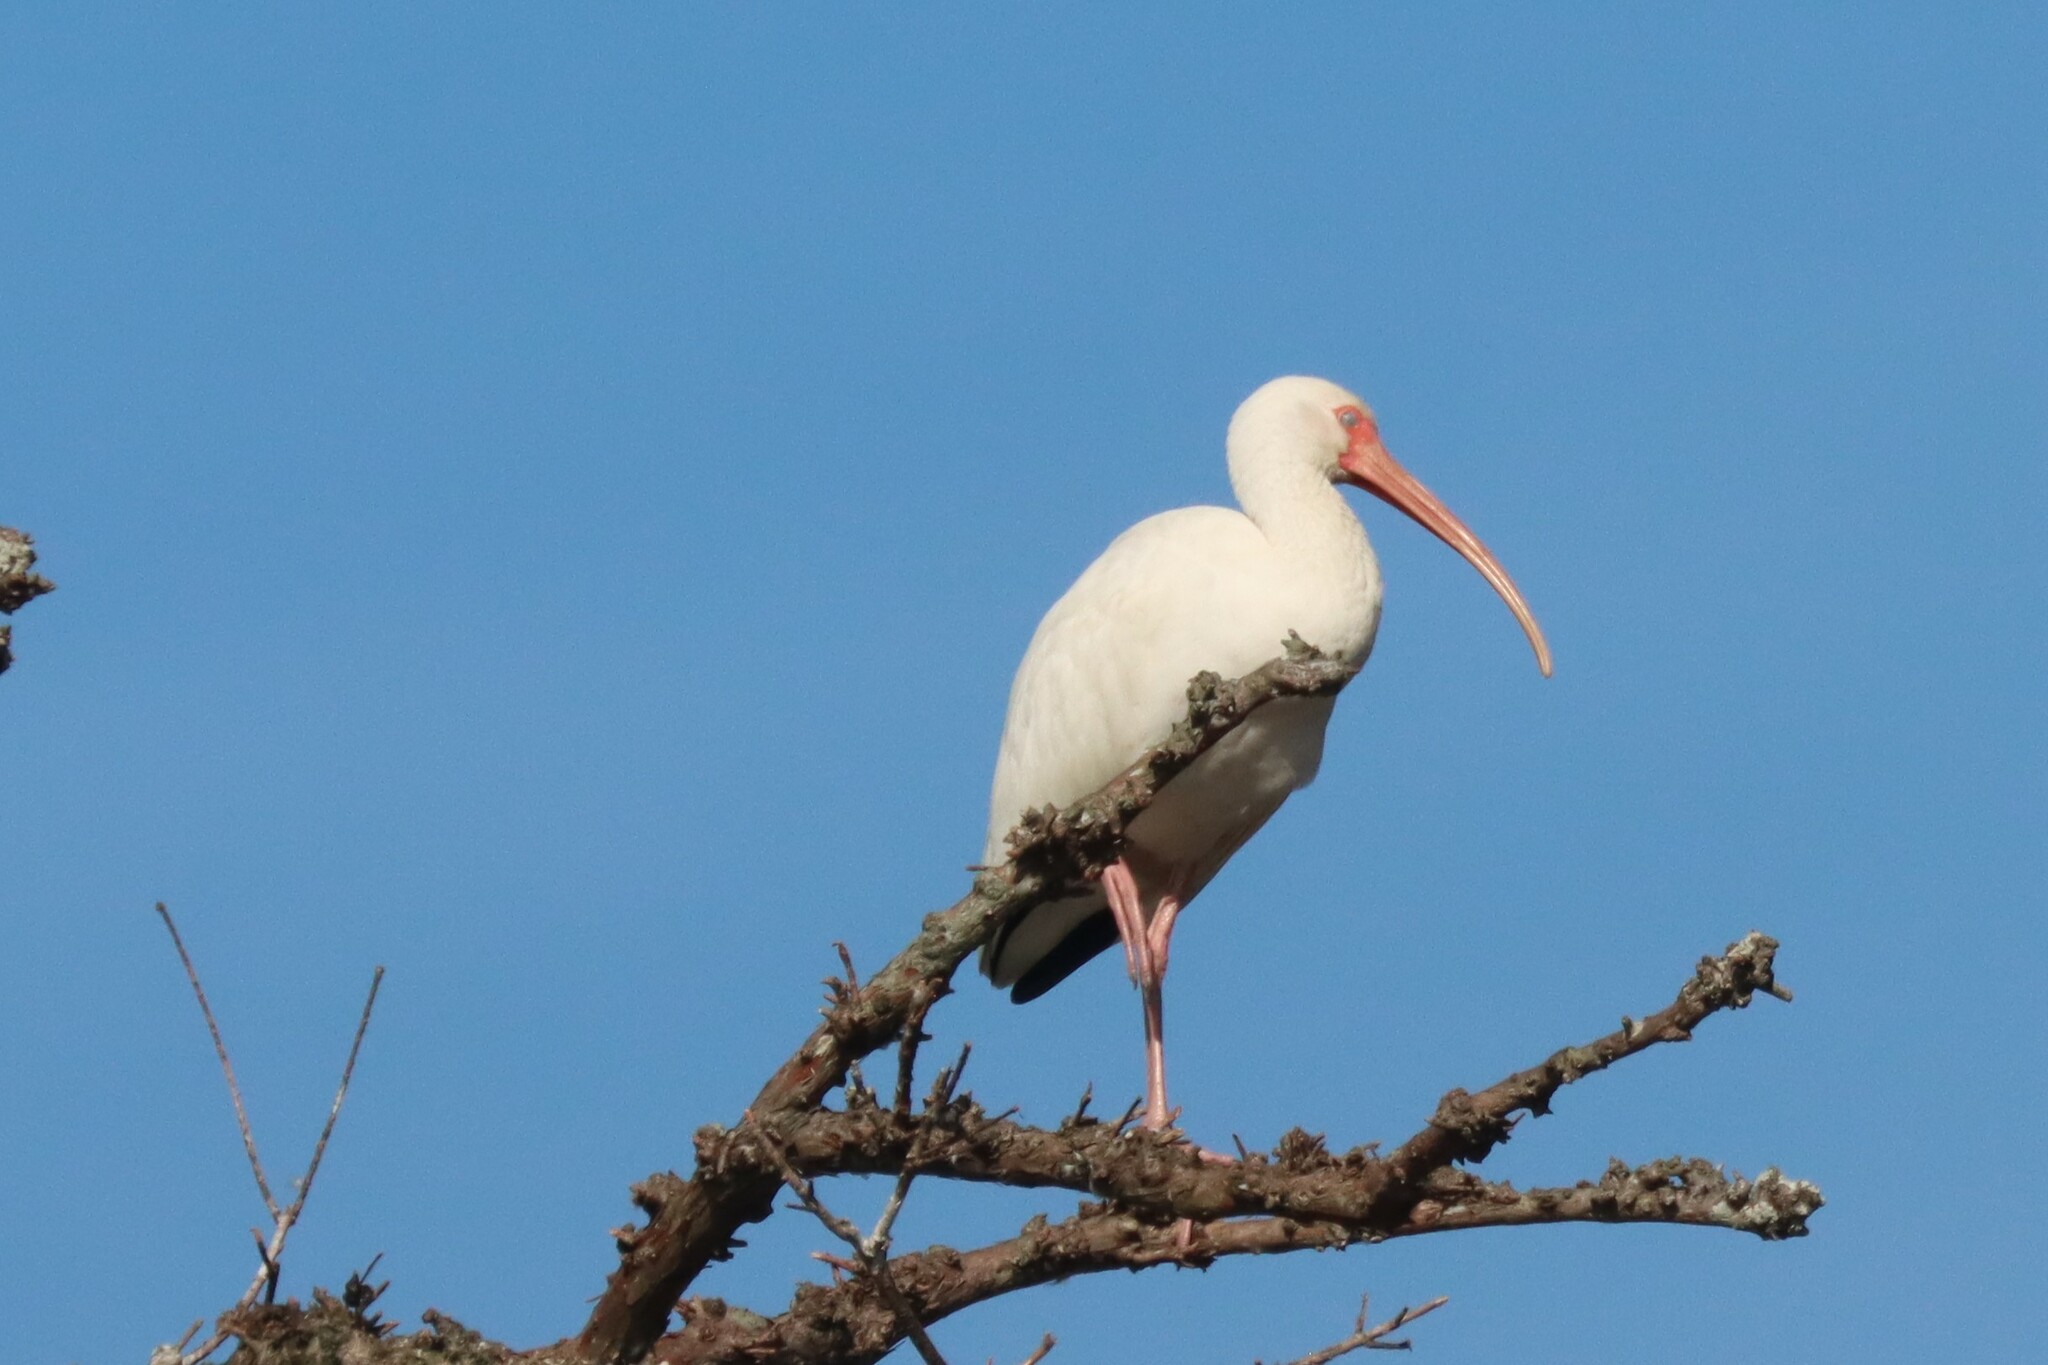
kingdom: Animalia
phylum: Chordata
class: Aves
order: Pelecaniformes
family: Threskiornithidae
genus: Eudocimus
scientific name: Eudocimus albus
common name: White ibis
